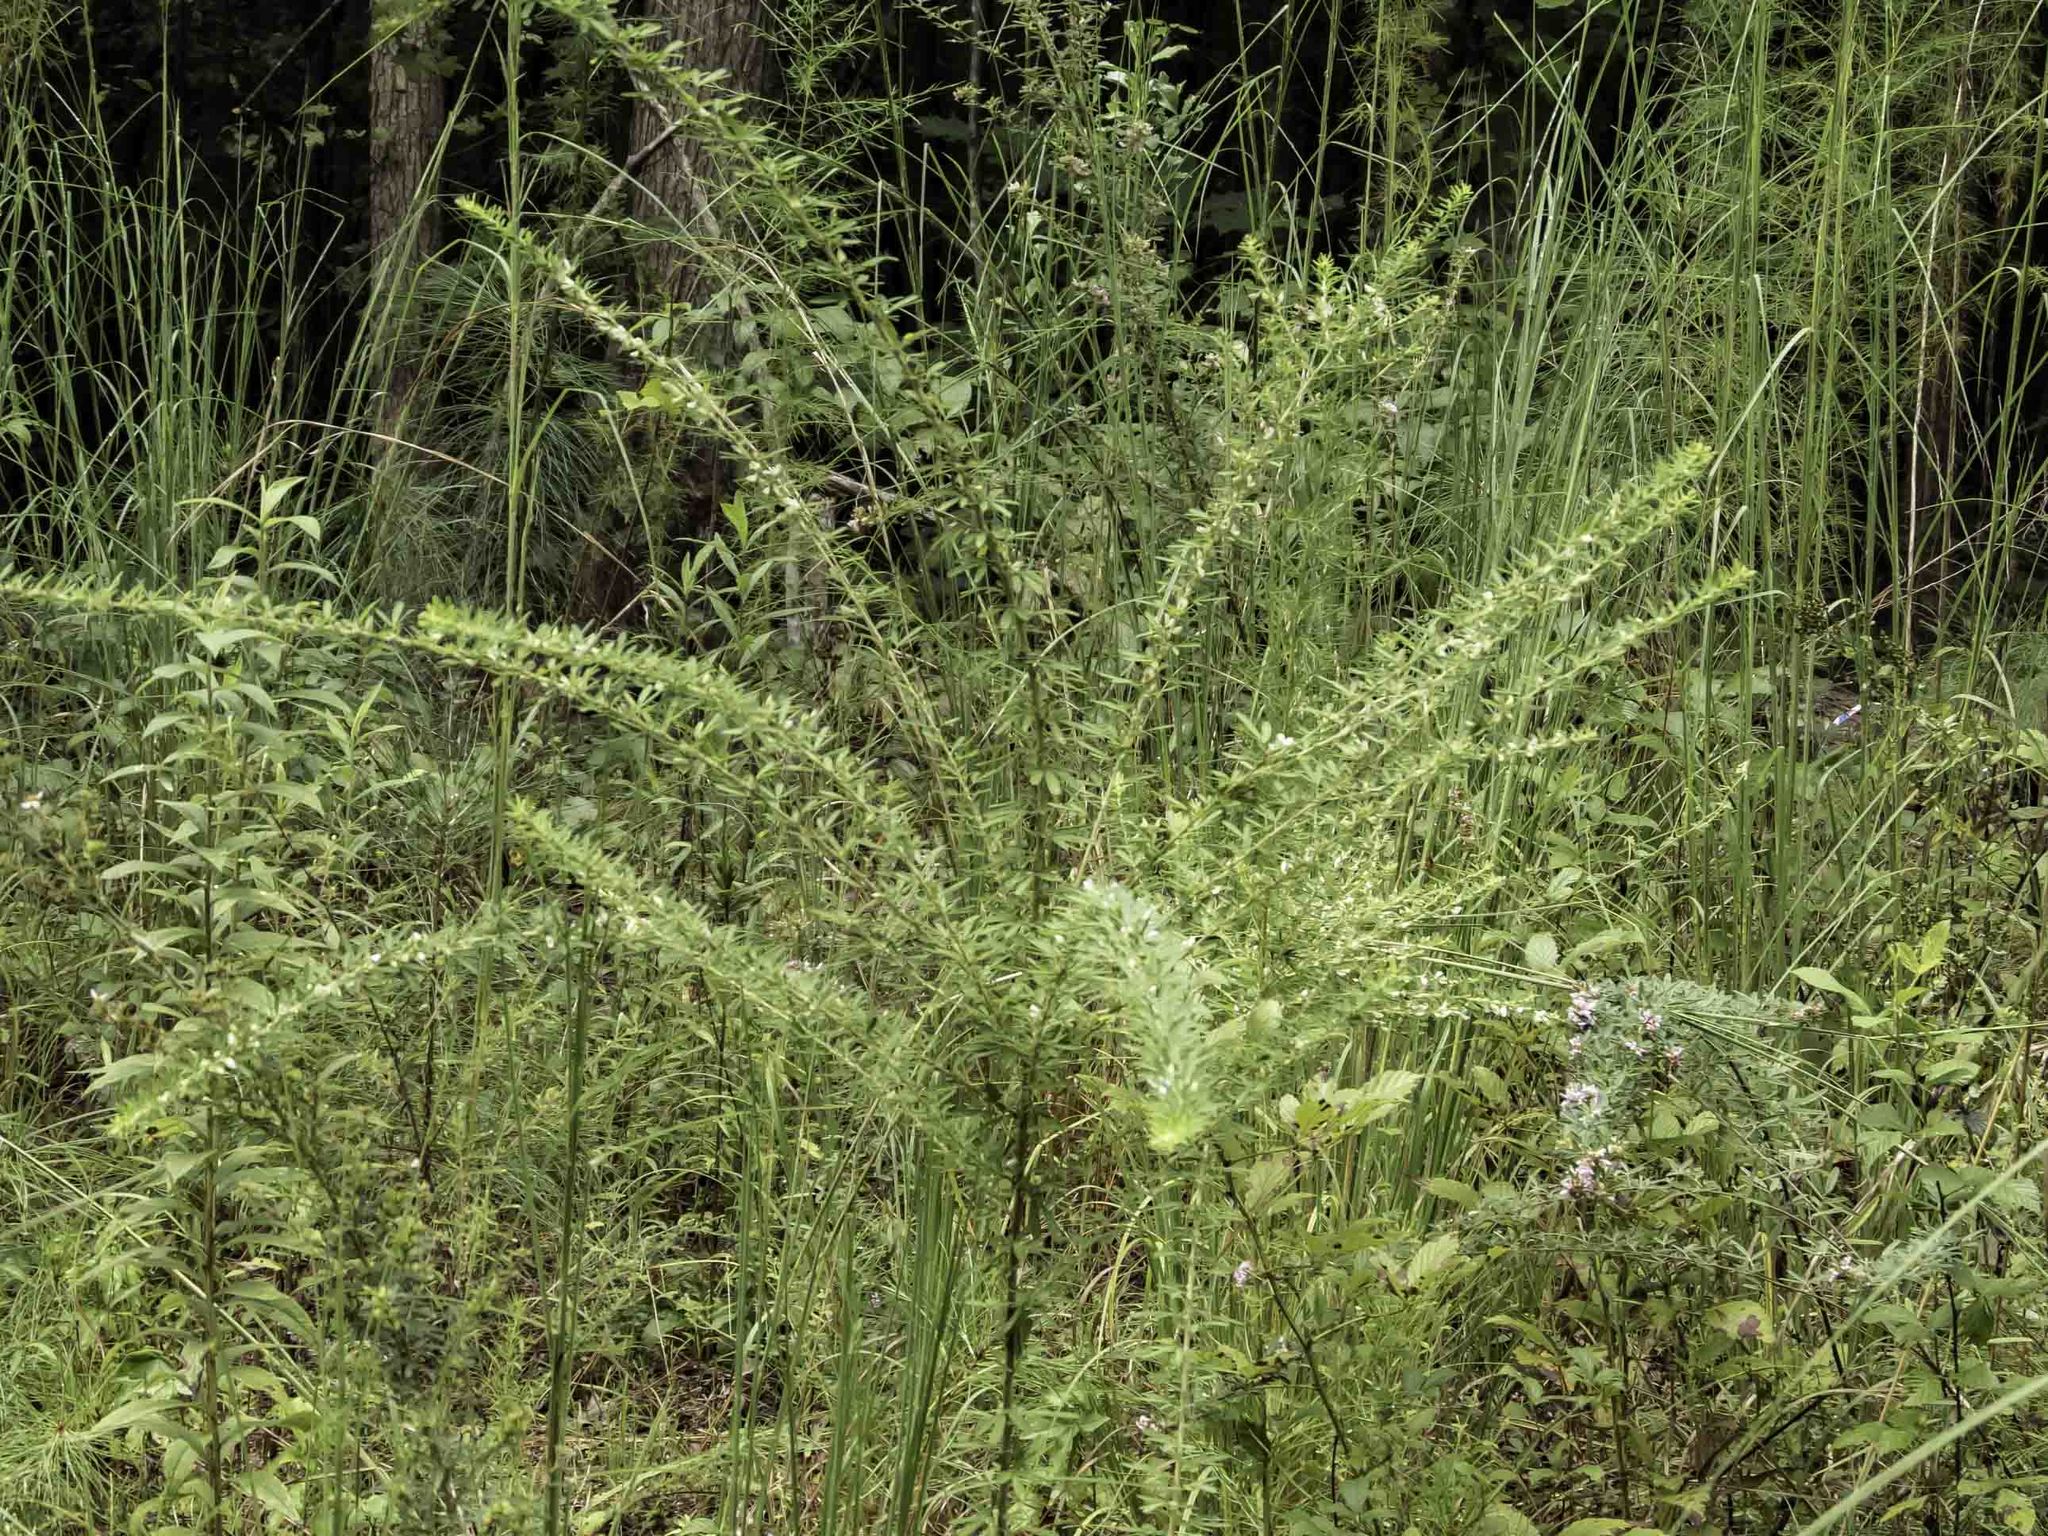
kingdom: Plantae
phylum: Tracheophyta
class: Magnoliopsida
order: Fabales
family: Fabaceae
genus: Lespedeza
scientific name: Lespedeza cuneata
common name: Chinese bush-clover
